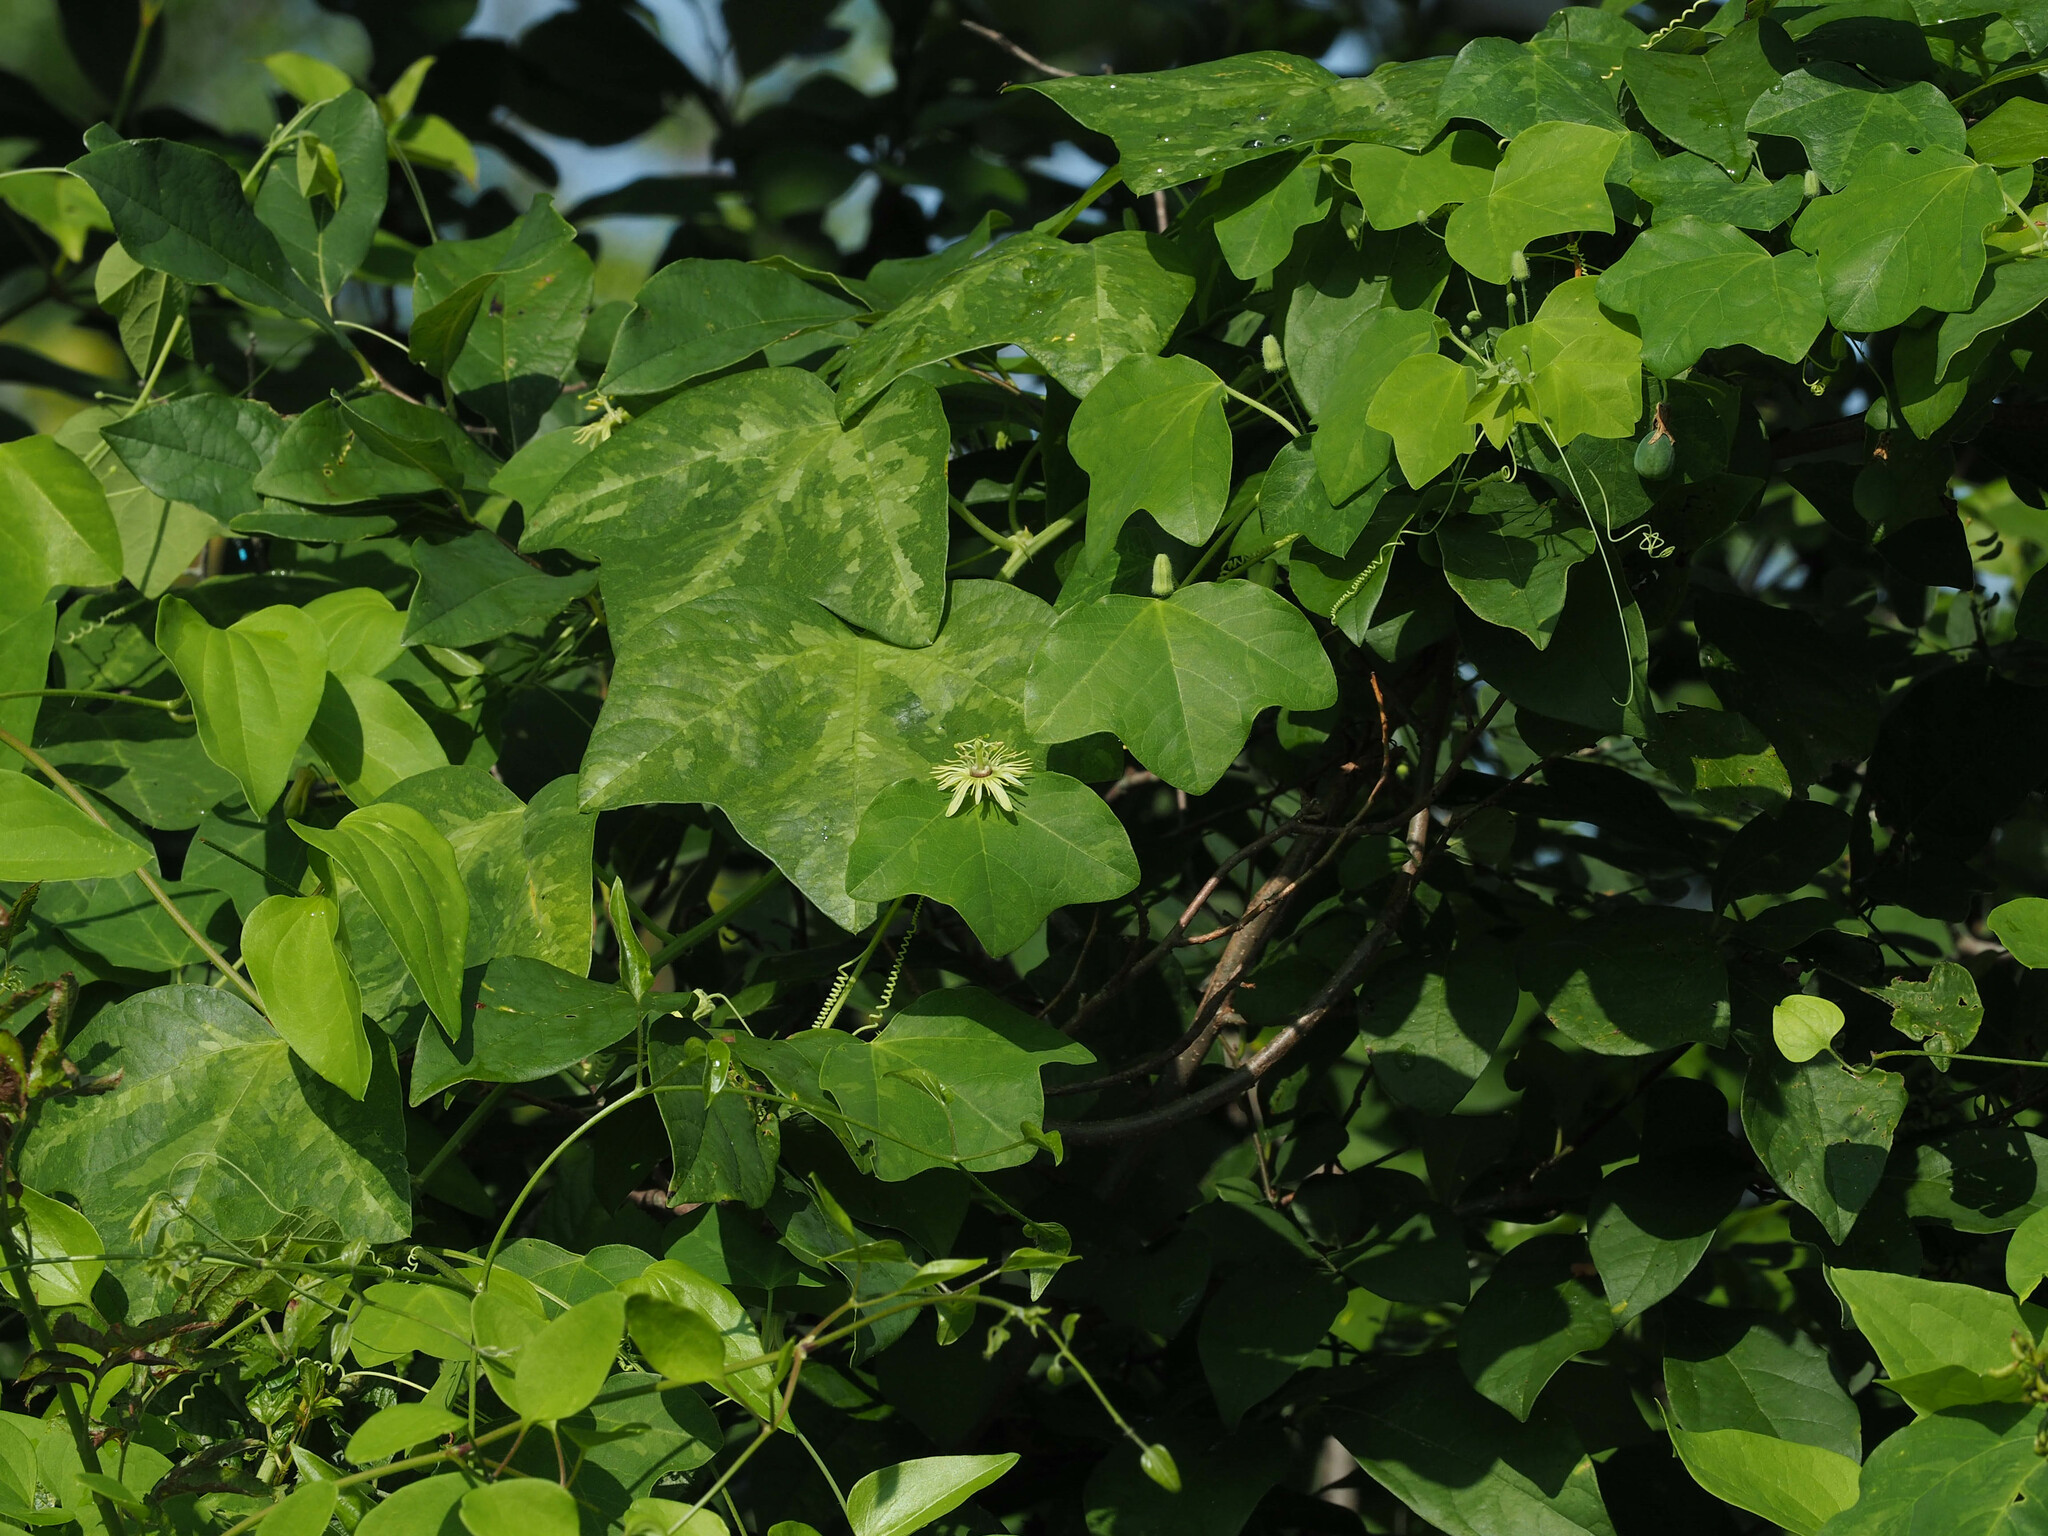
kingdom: Plantae
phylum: Tracheophyta
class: Magnoliopsida
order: Malpighiales
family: Passifloraceae
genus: Passiflora
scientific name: Passiflora lutea
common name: Yellow passionflower
